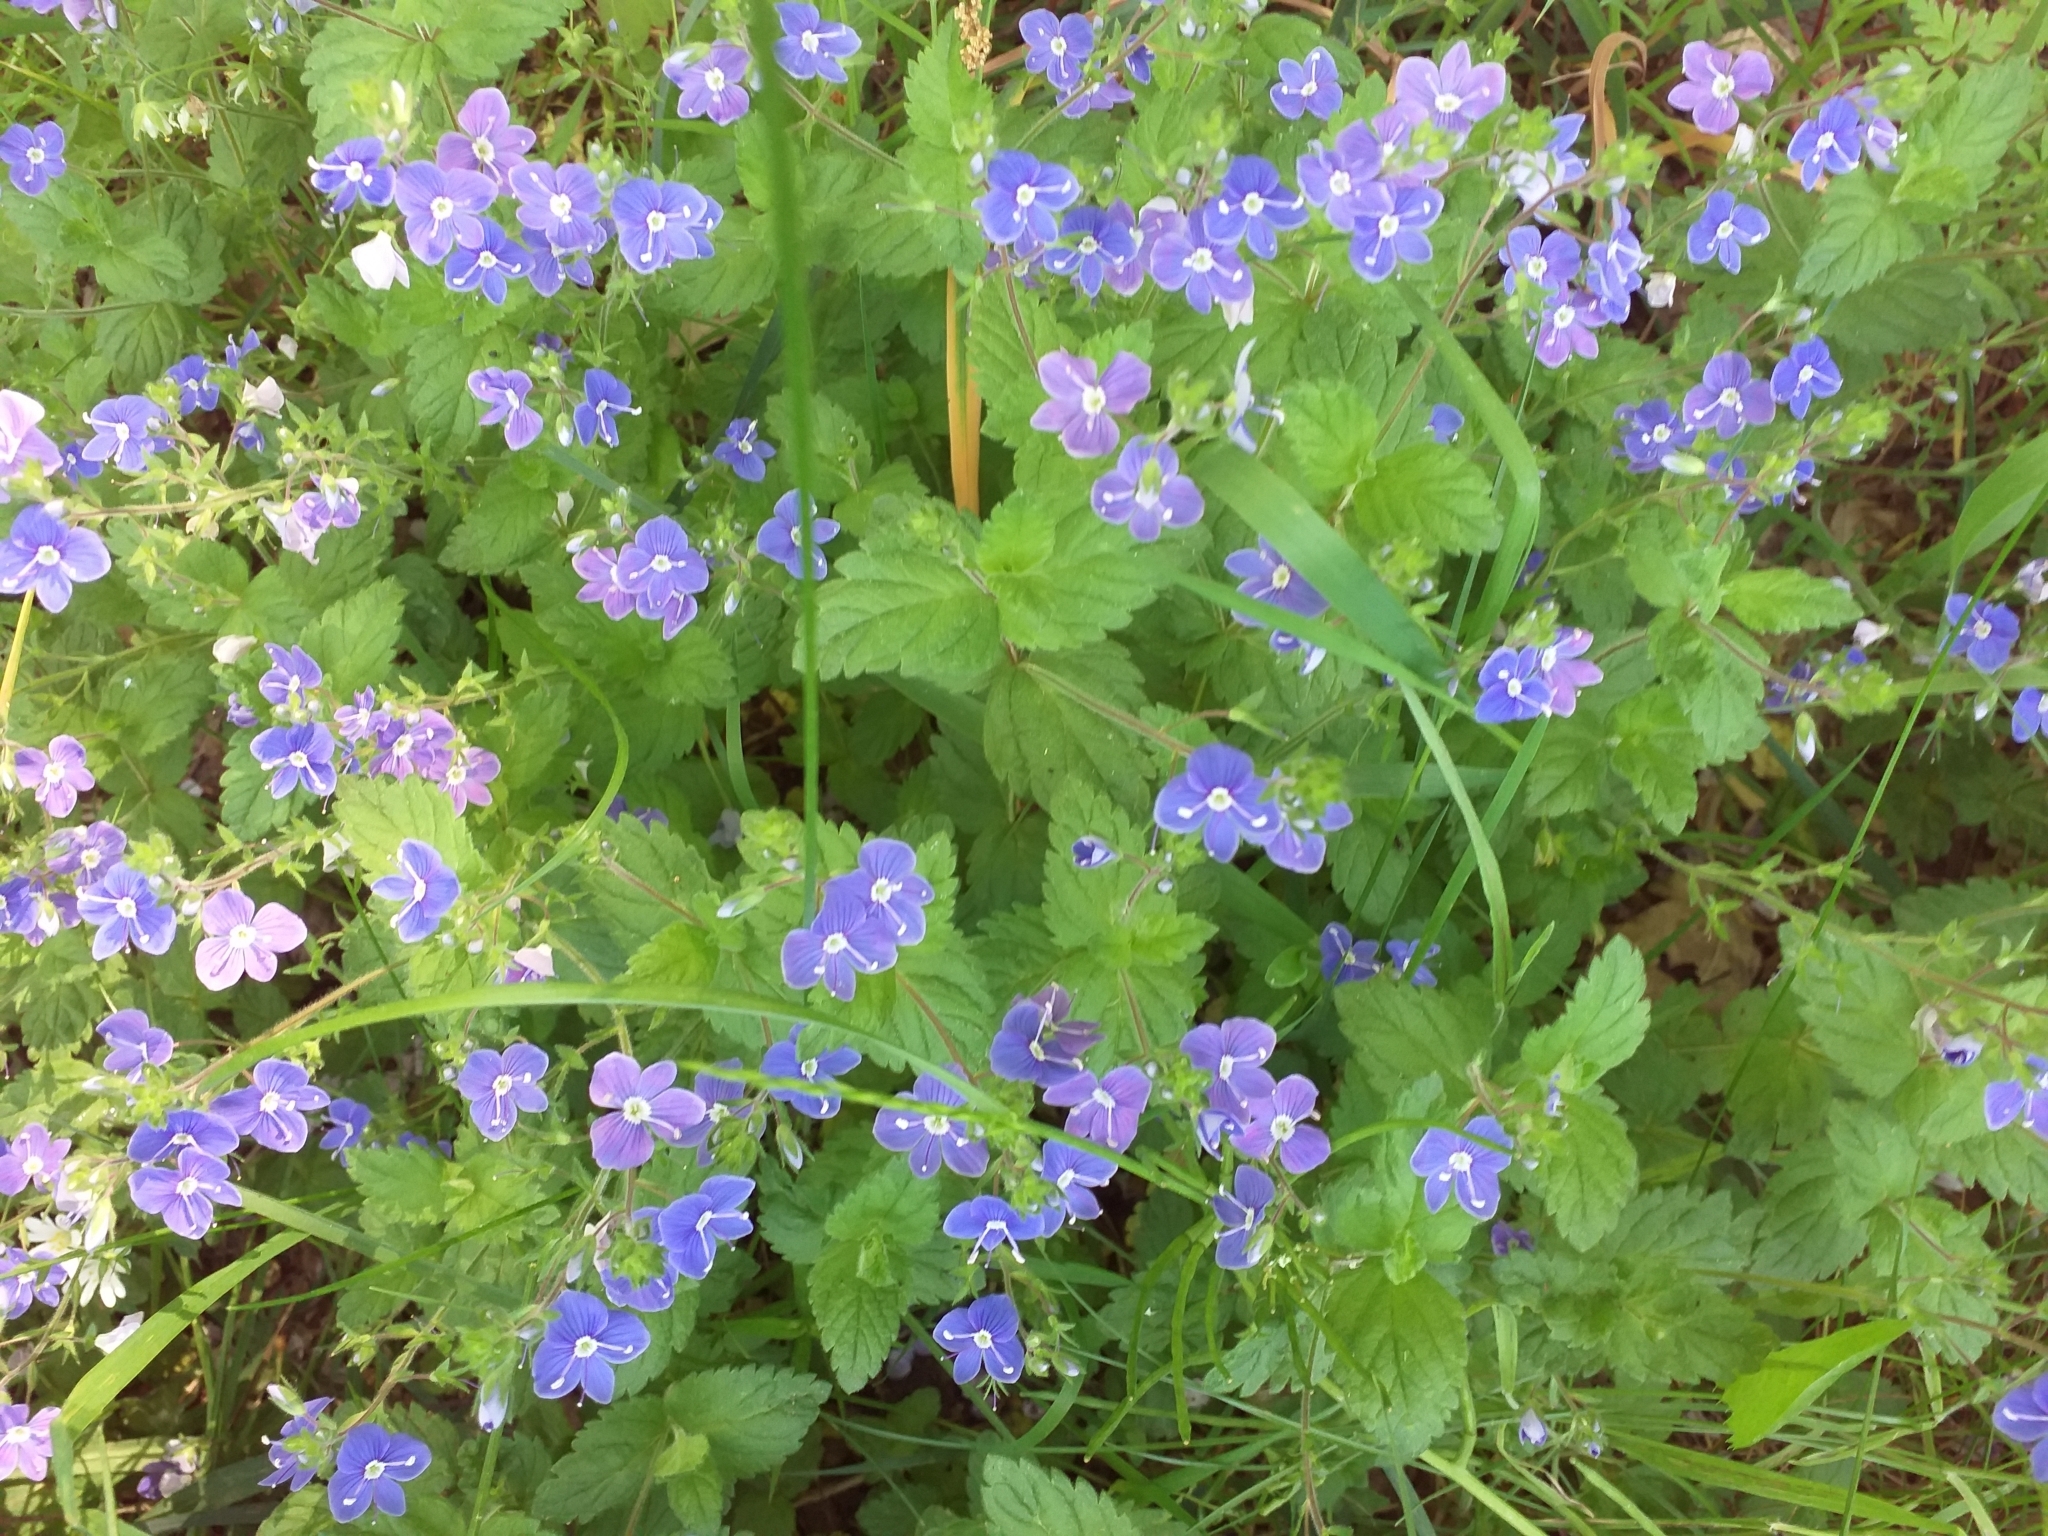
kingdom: Plantae
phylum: Tracheophyta
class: Magnoliopsida
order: Lamiales
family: Plantaginaceae
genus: Veronica
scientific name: Veronica chamaedrys
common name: Germander speedwell
